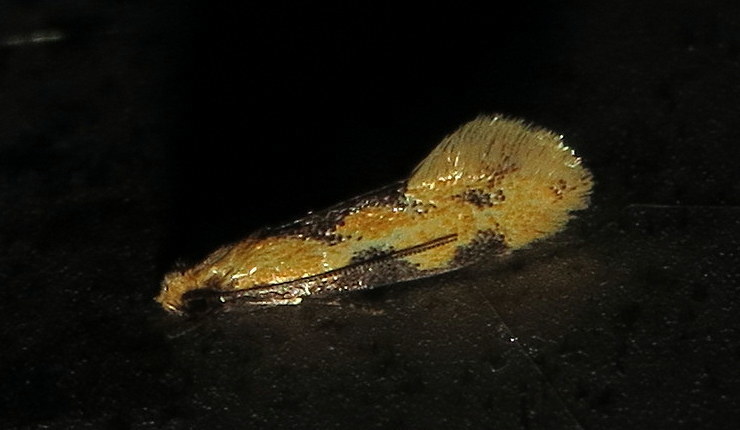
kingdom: Animalia
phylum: Arthropoda
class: Insecta
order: Lepidoptera
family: Meessiidae
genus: Hybroma
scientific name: Hybroma servulella
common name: Yellow wave moth
